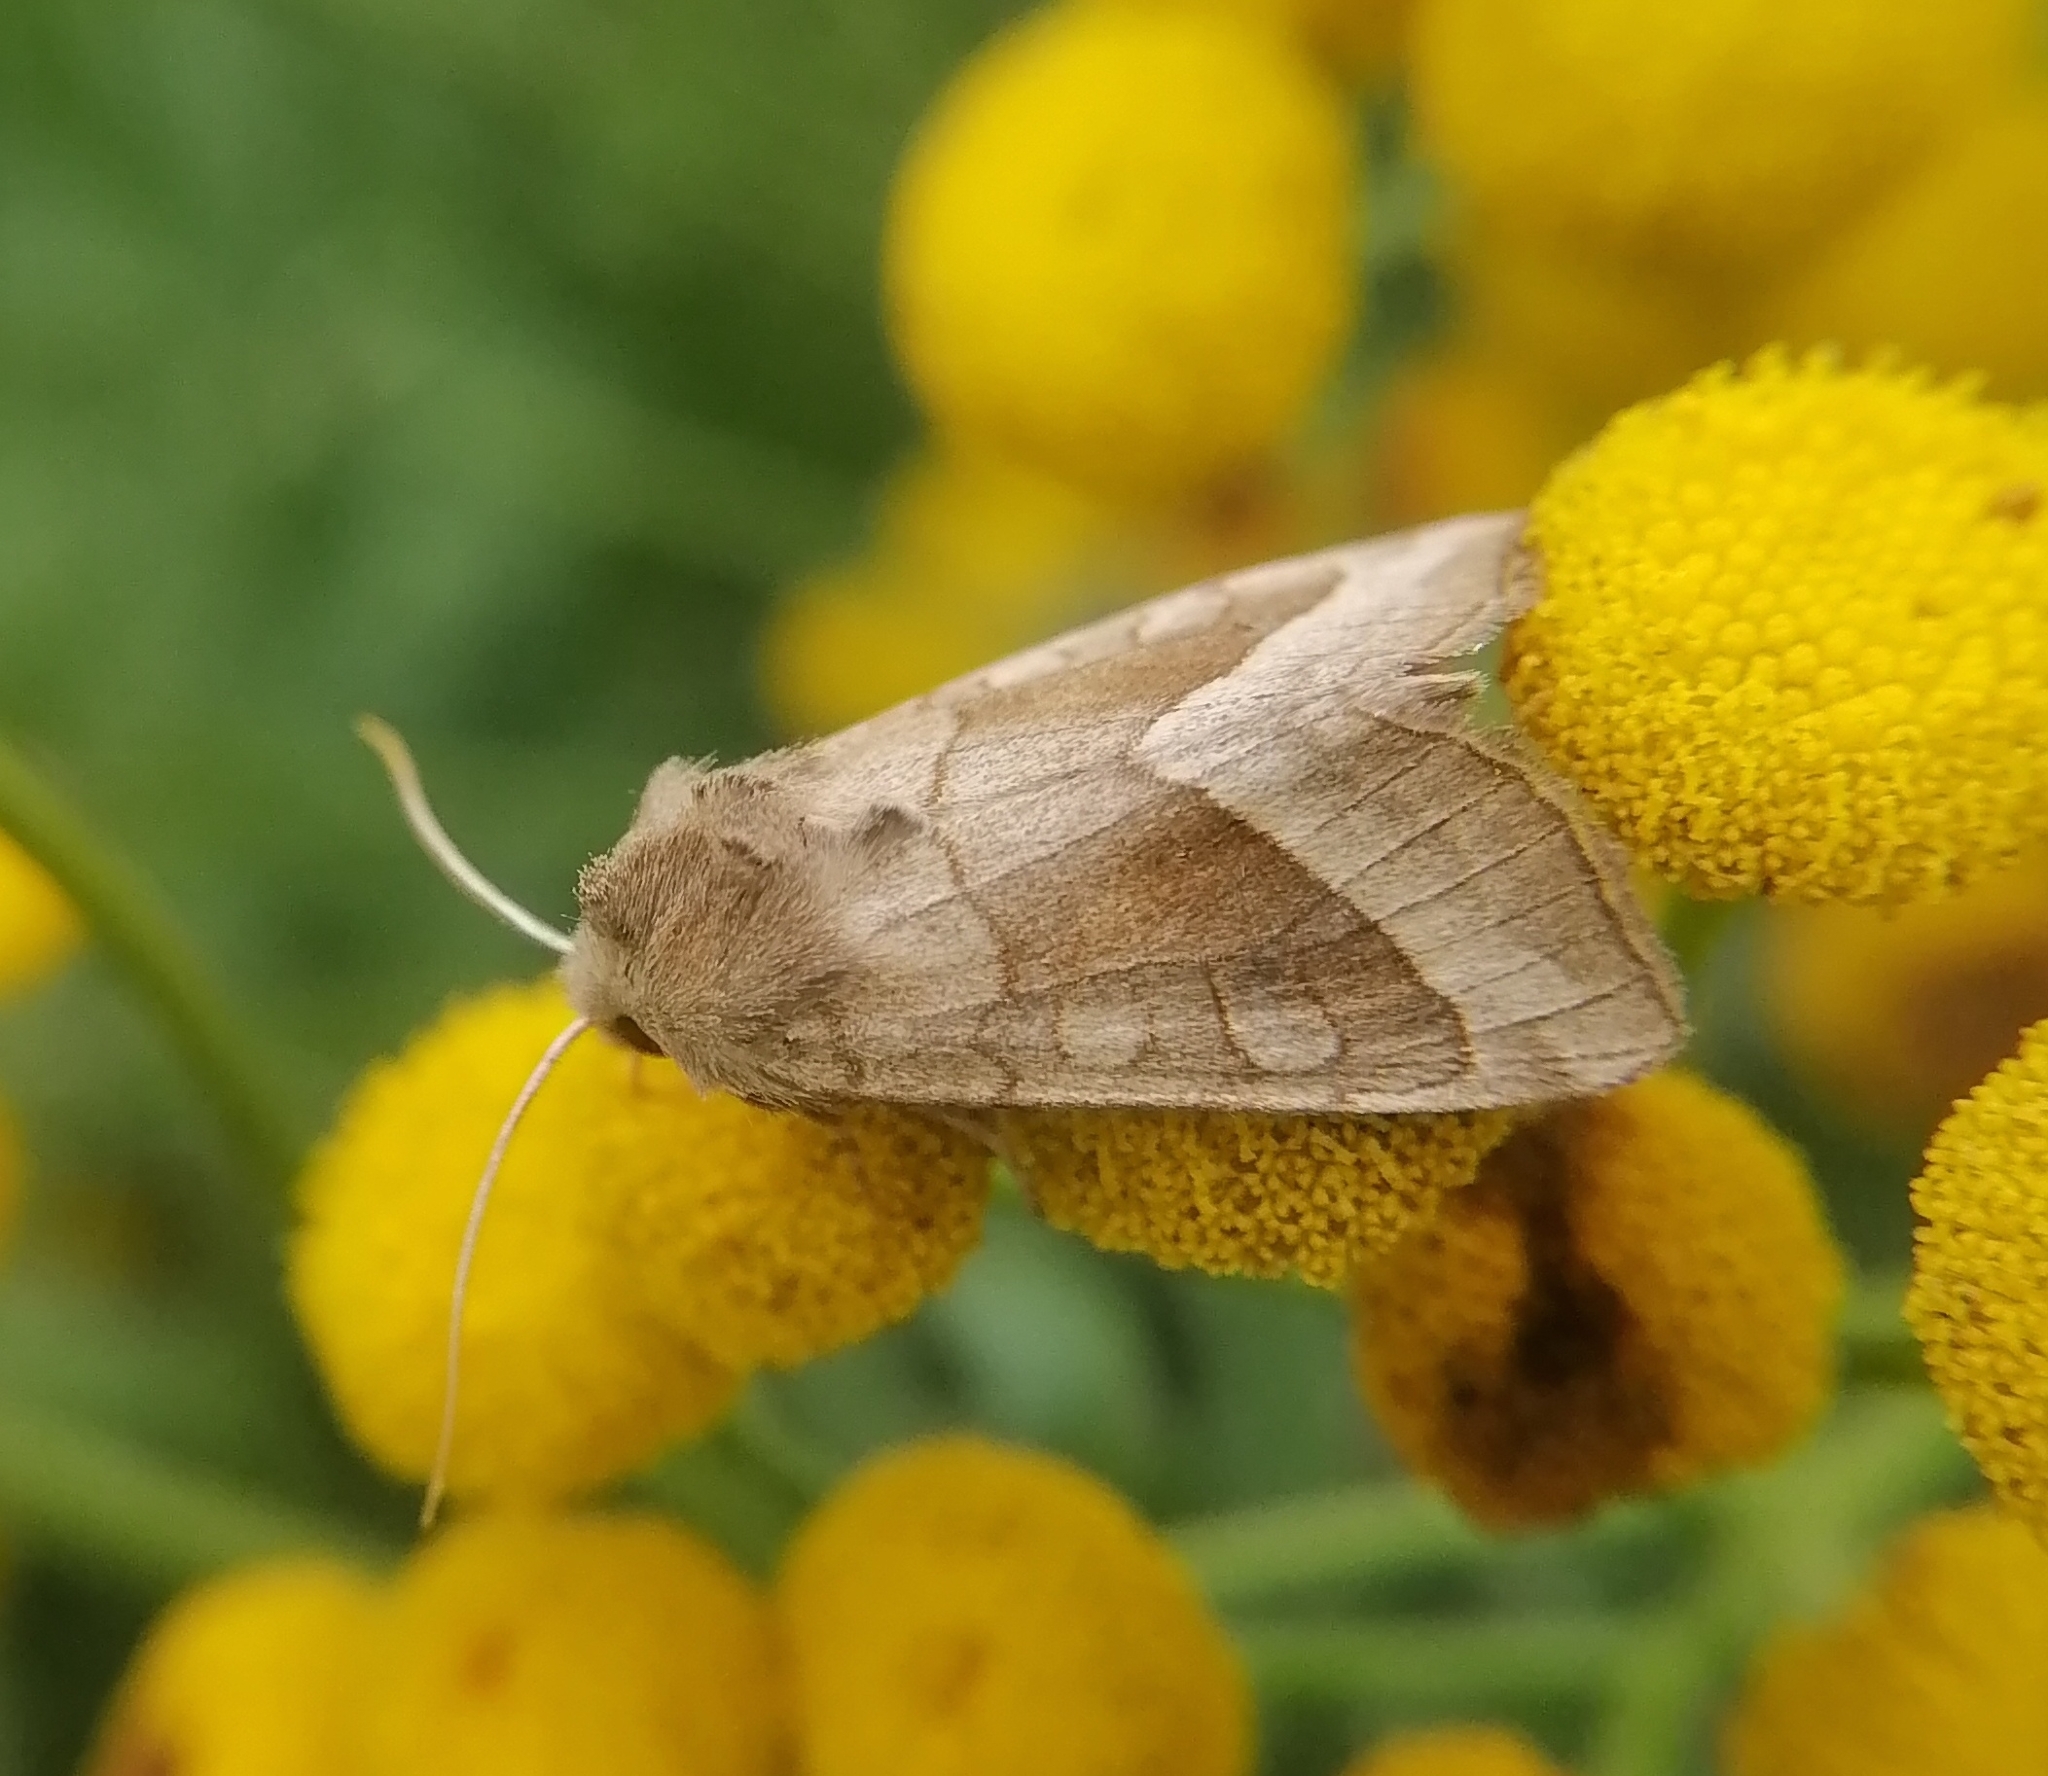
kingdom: Animalia
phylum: Arthropoda
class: Insecta
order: Lepidoptera
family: Noctuidae
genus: Hydraecia
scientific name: Hydraecia micacea
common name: Rosy rustic
